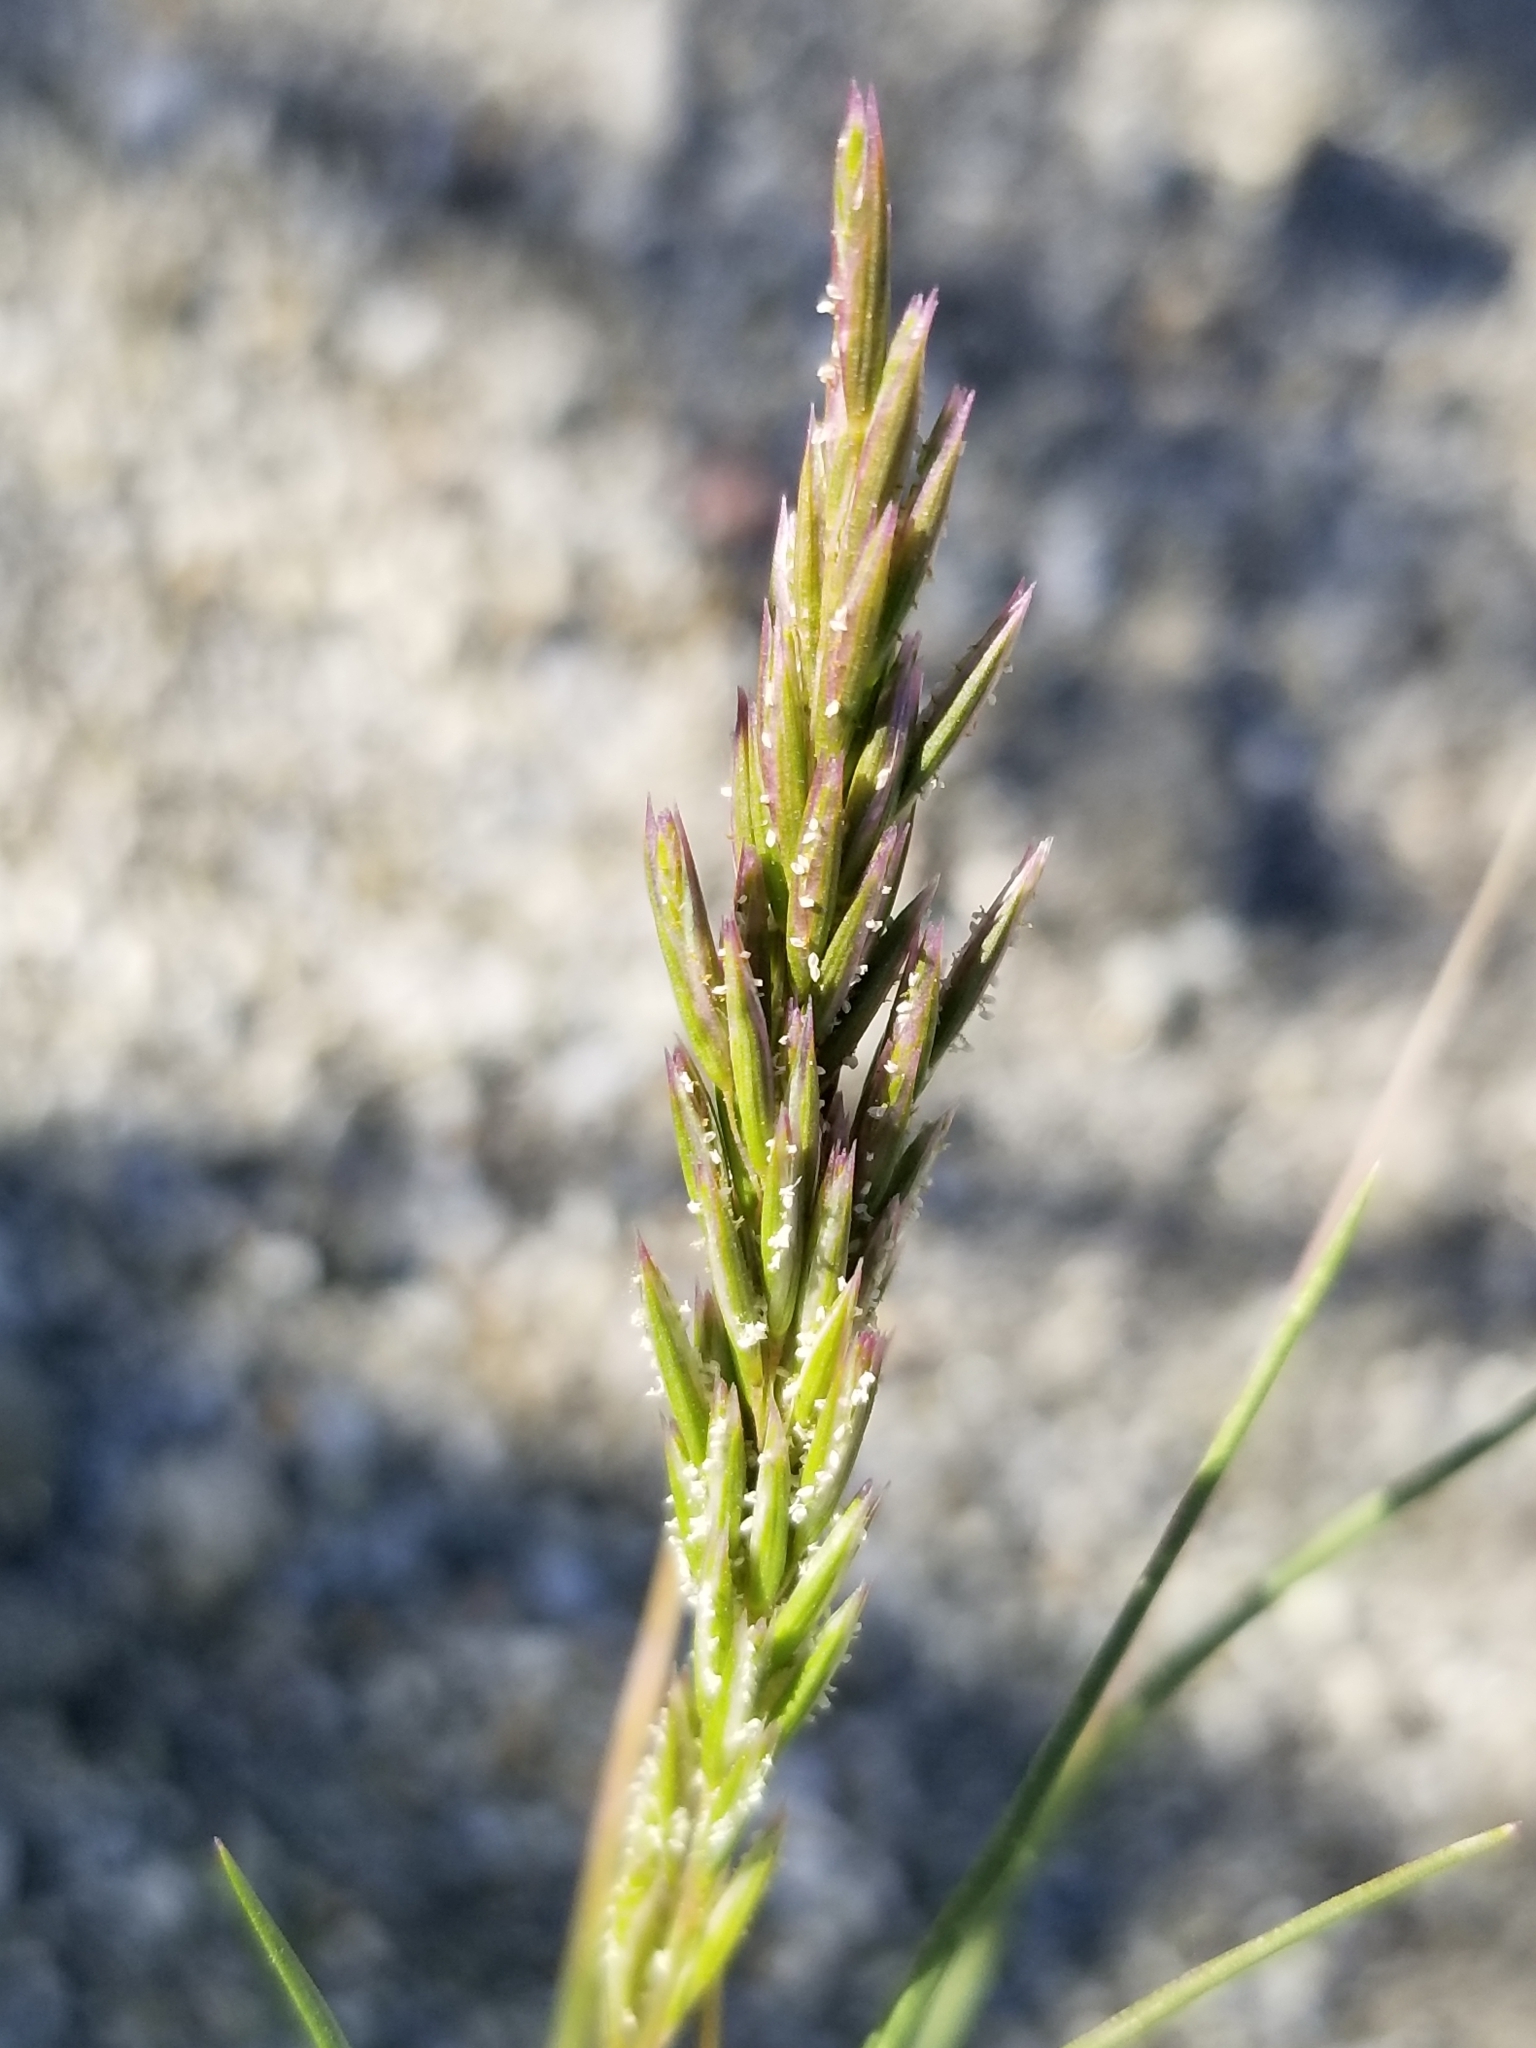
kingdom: Plantae
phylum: Tracheophyta
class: Liliopsida
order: Poales
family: Poaceae
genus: Schismus
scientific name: Schismus barbatus
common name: Kelch-grass
